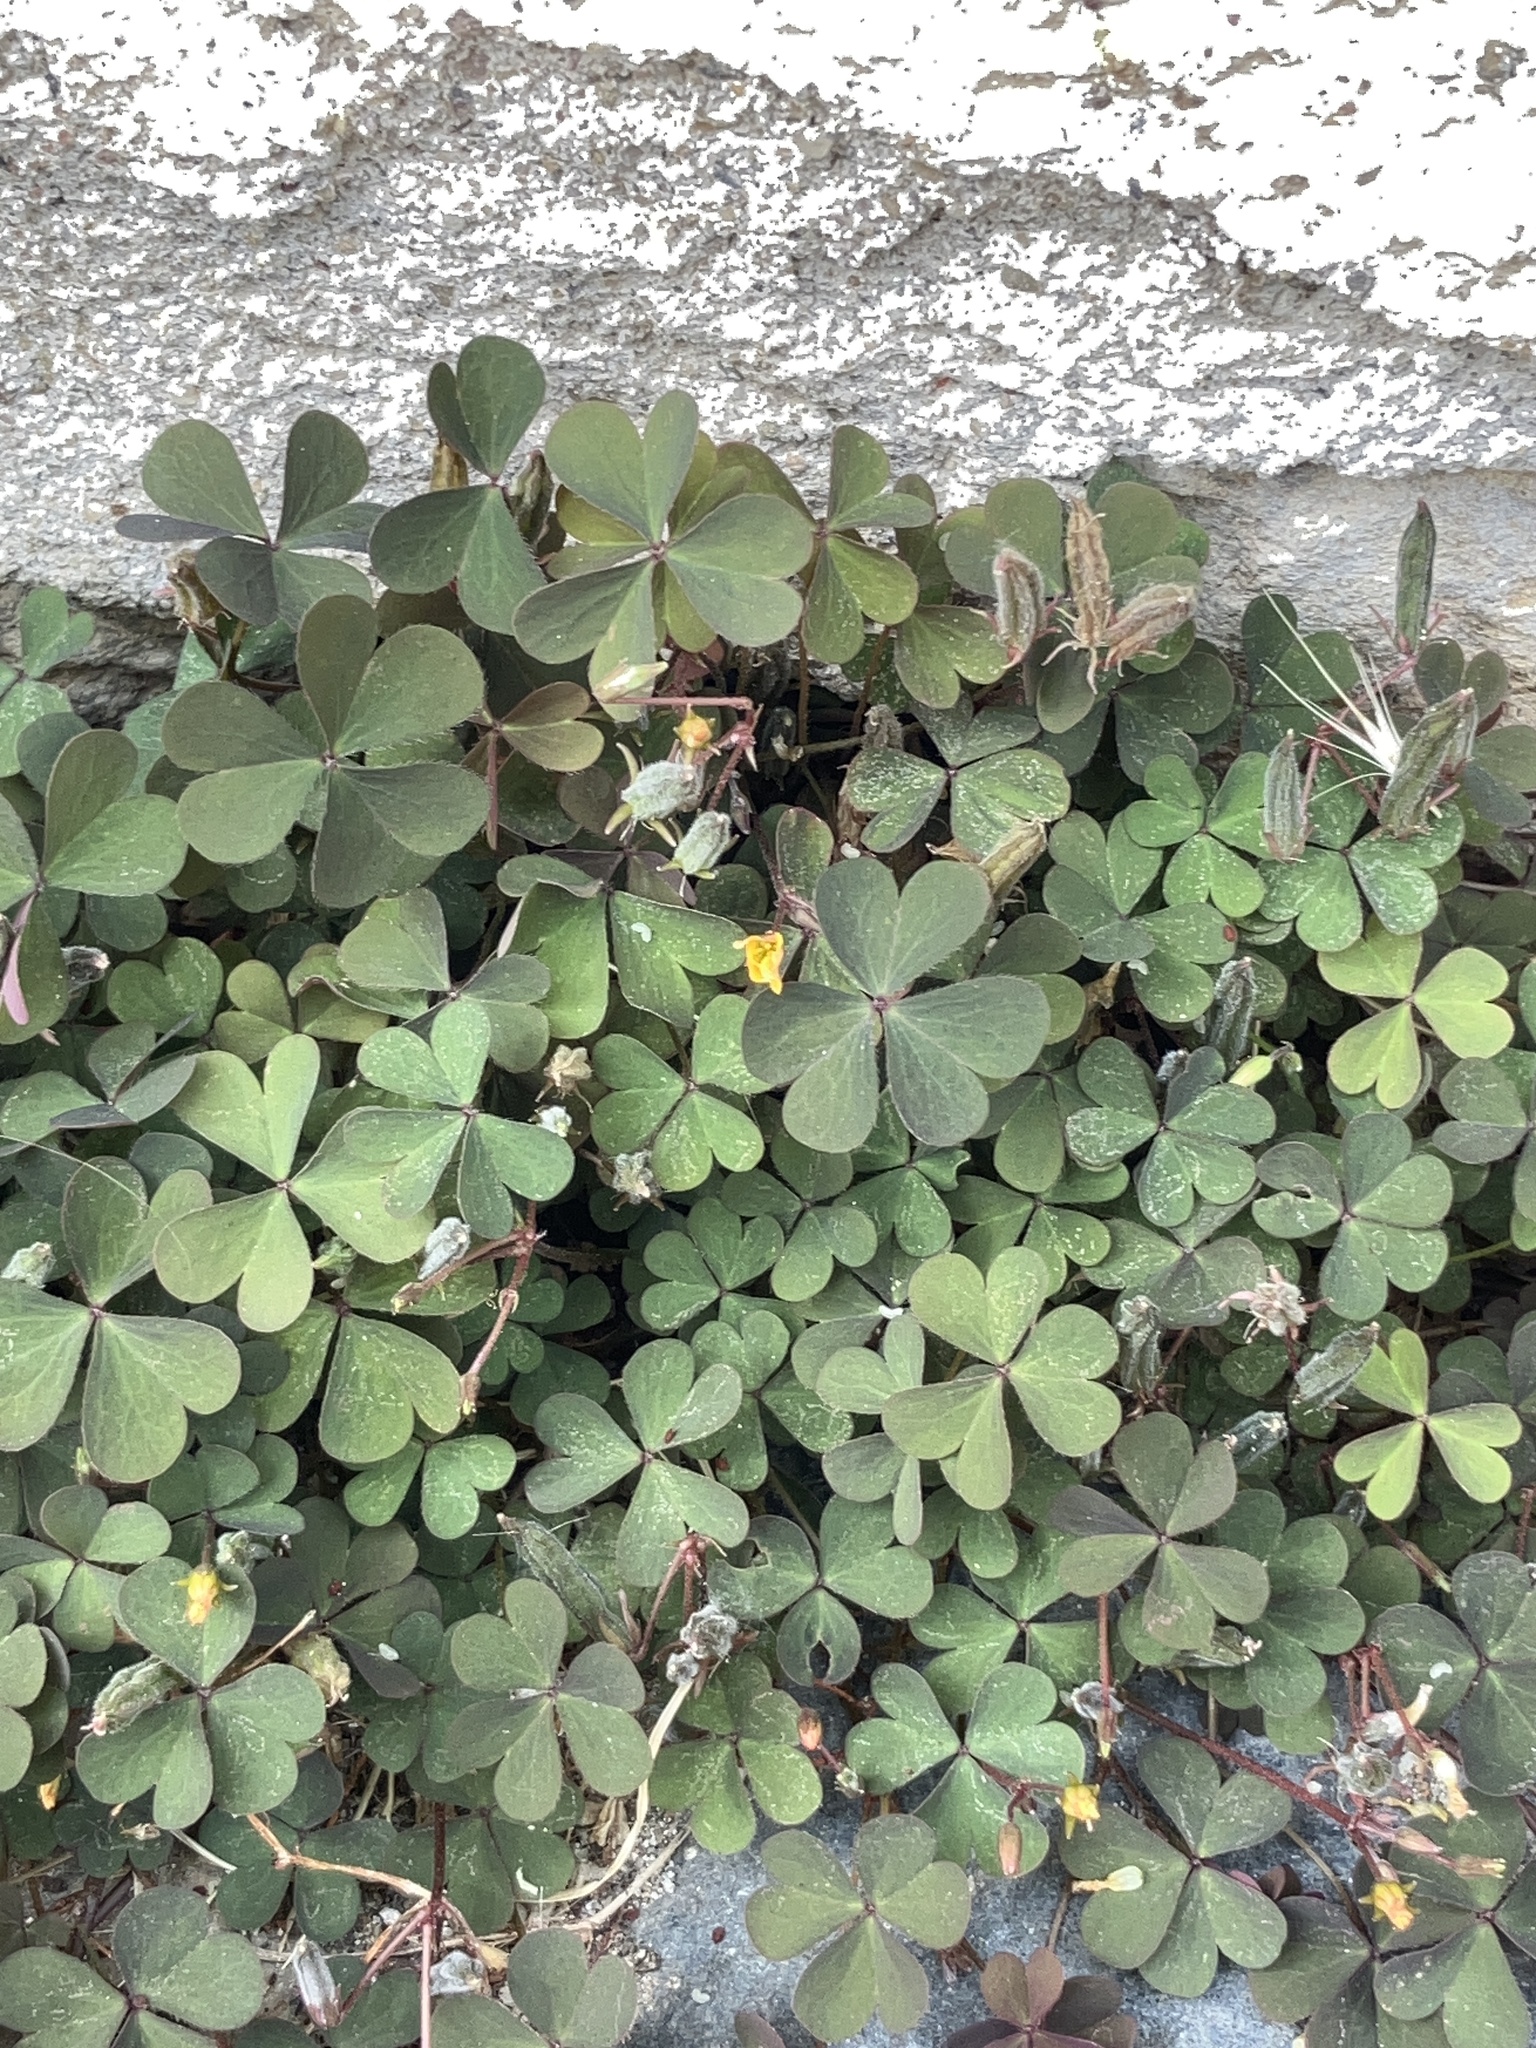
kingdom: Plantae
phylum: Tracheophyta
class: Magnoliopsida
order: Oxalidales
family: Oxalidaceae
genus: Oxalis
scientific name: Oxalis corniculata
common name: Procumbent yellow-sorrel
